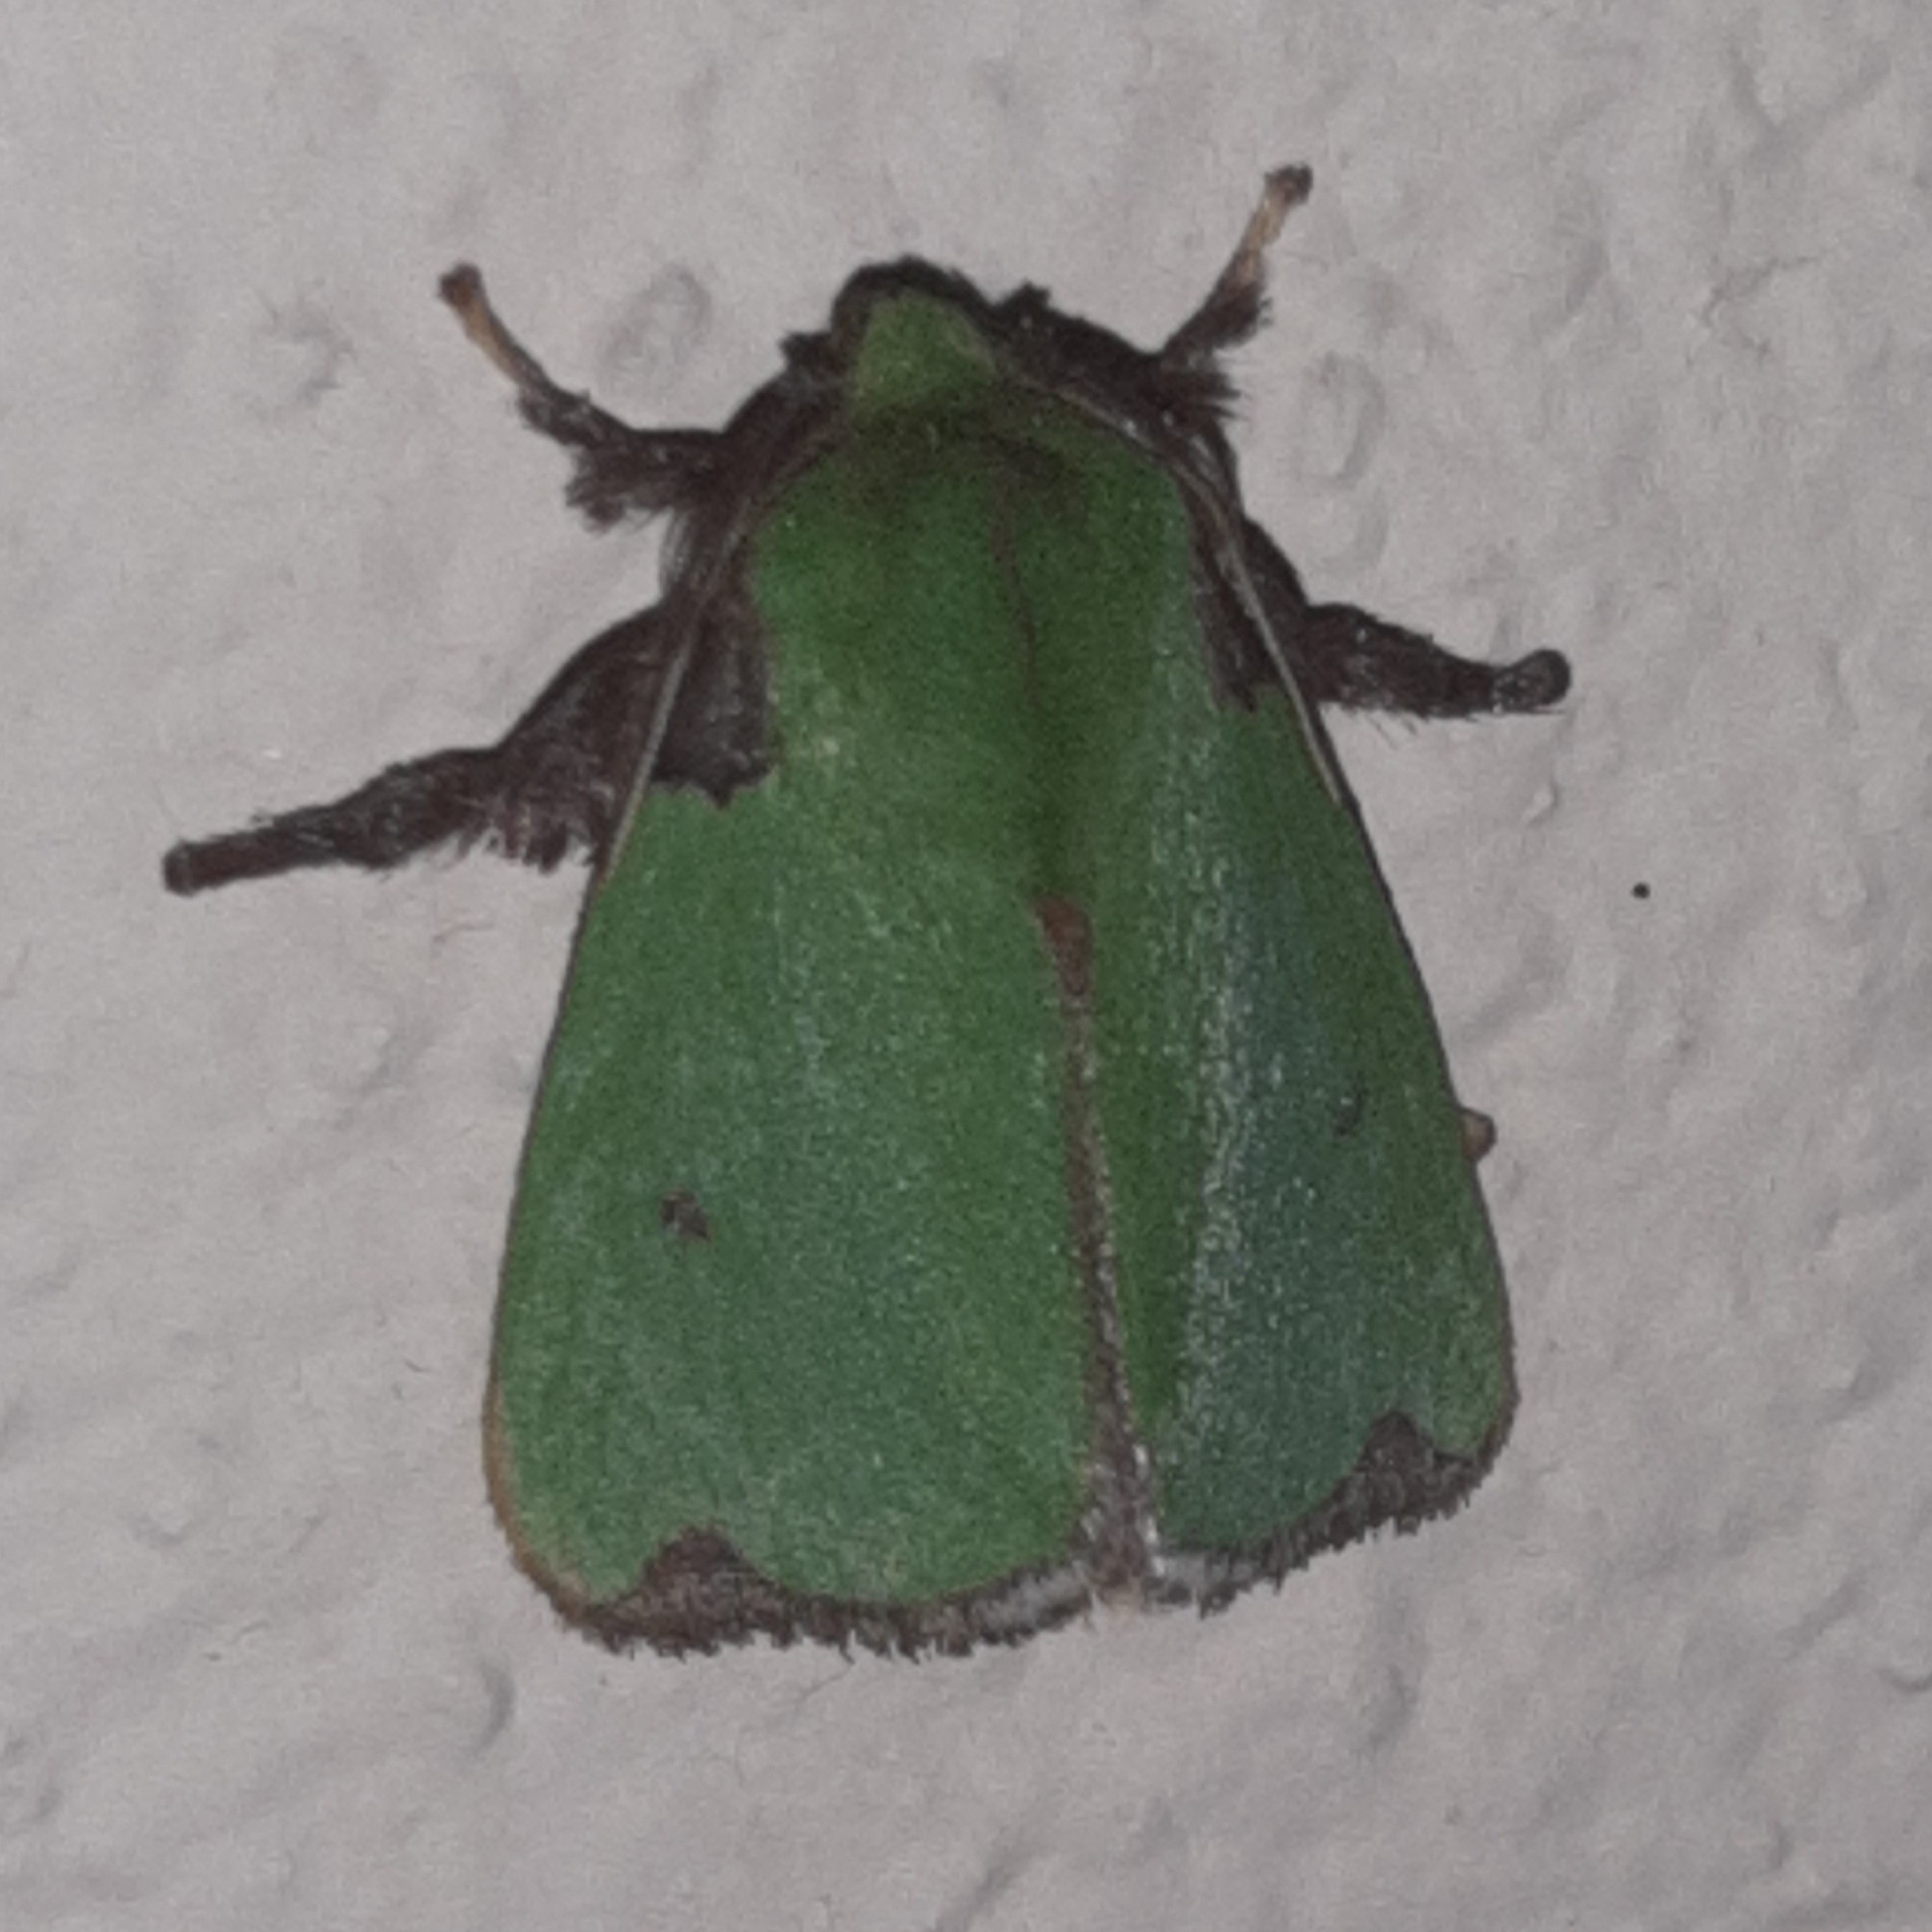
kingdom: Animalia
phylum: Arthropoda
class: Insecta
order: Lepidoptera
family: Limacodidae
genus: Parasa
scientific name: Parasa wellesca
